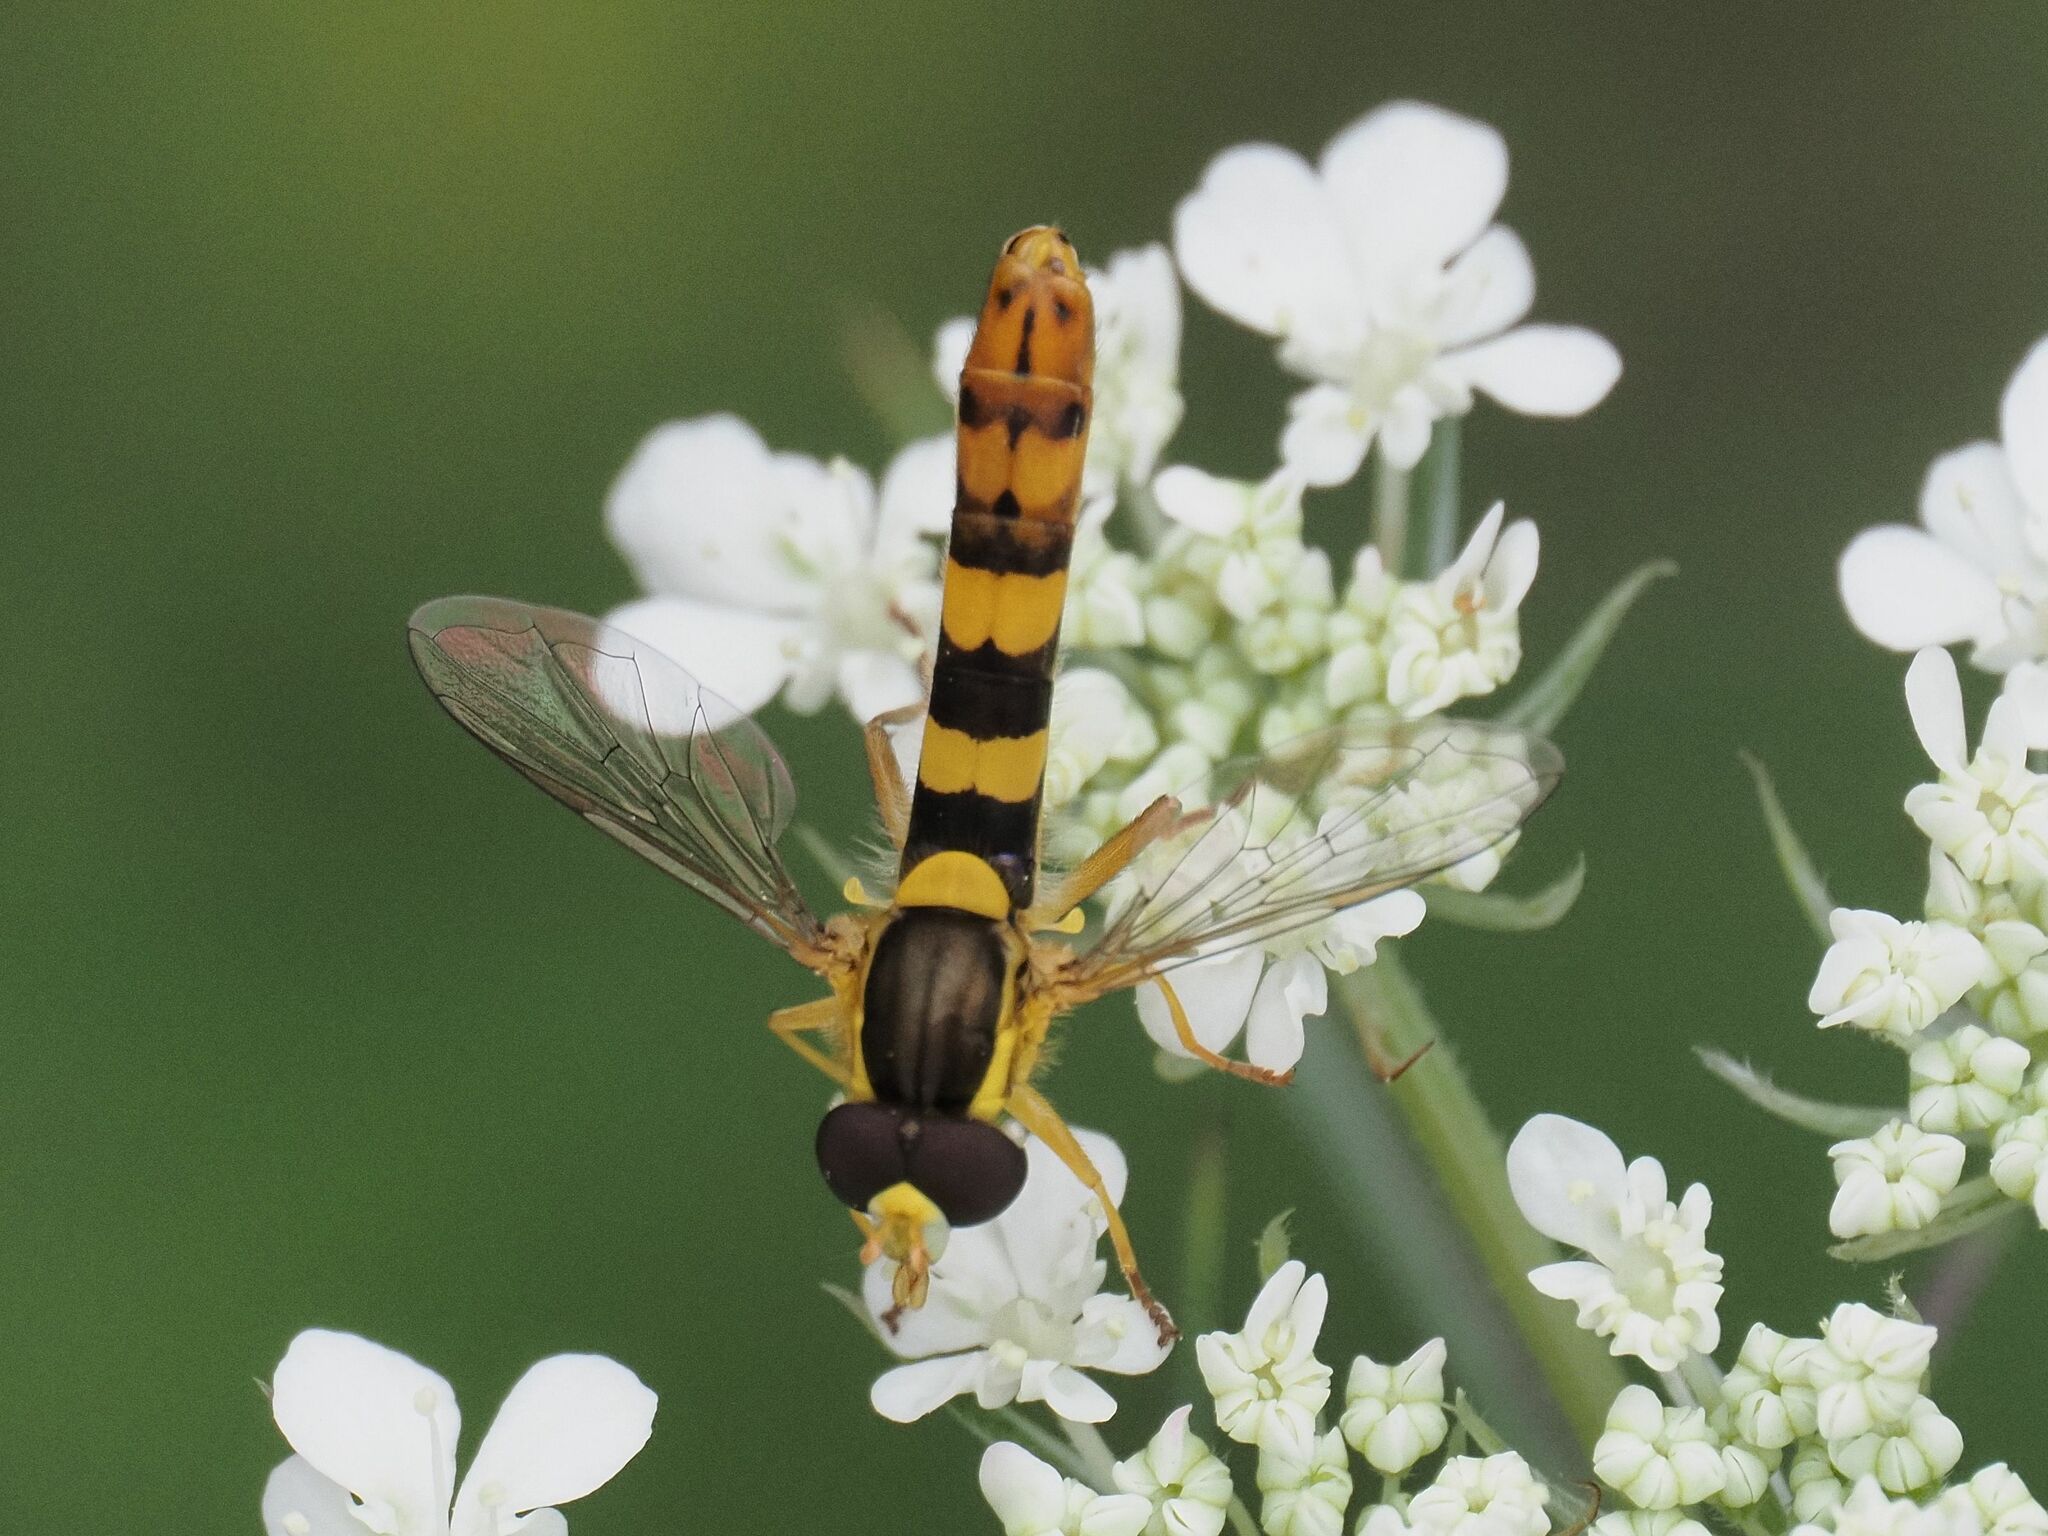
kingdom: Animalia
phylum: Arthropoda
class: Insecta
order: Diptera
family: Syrphidae
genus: Sphaerophoria
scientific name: Sphaerophoria scripta
